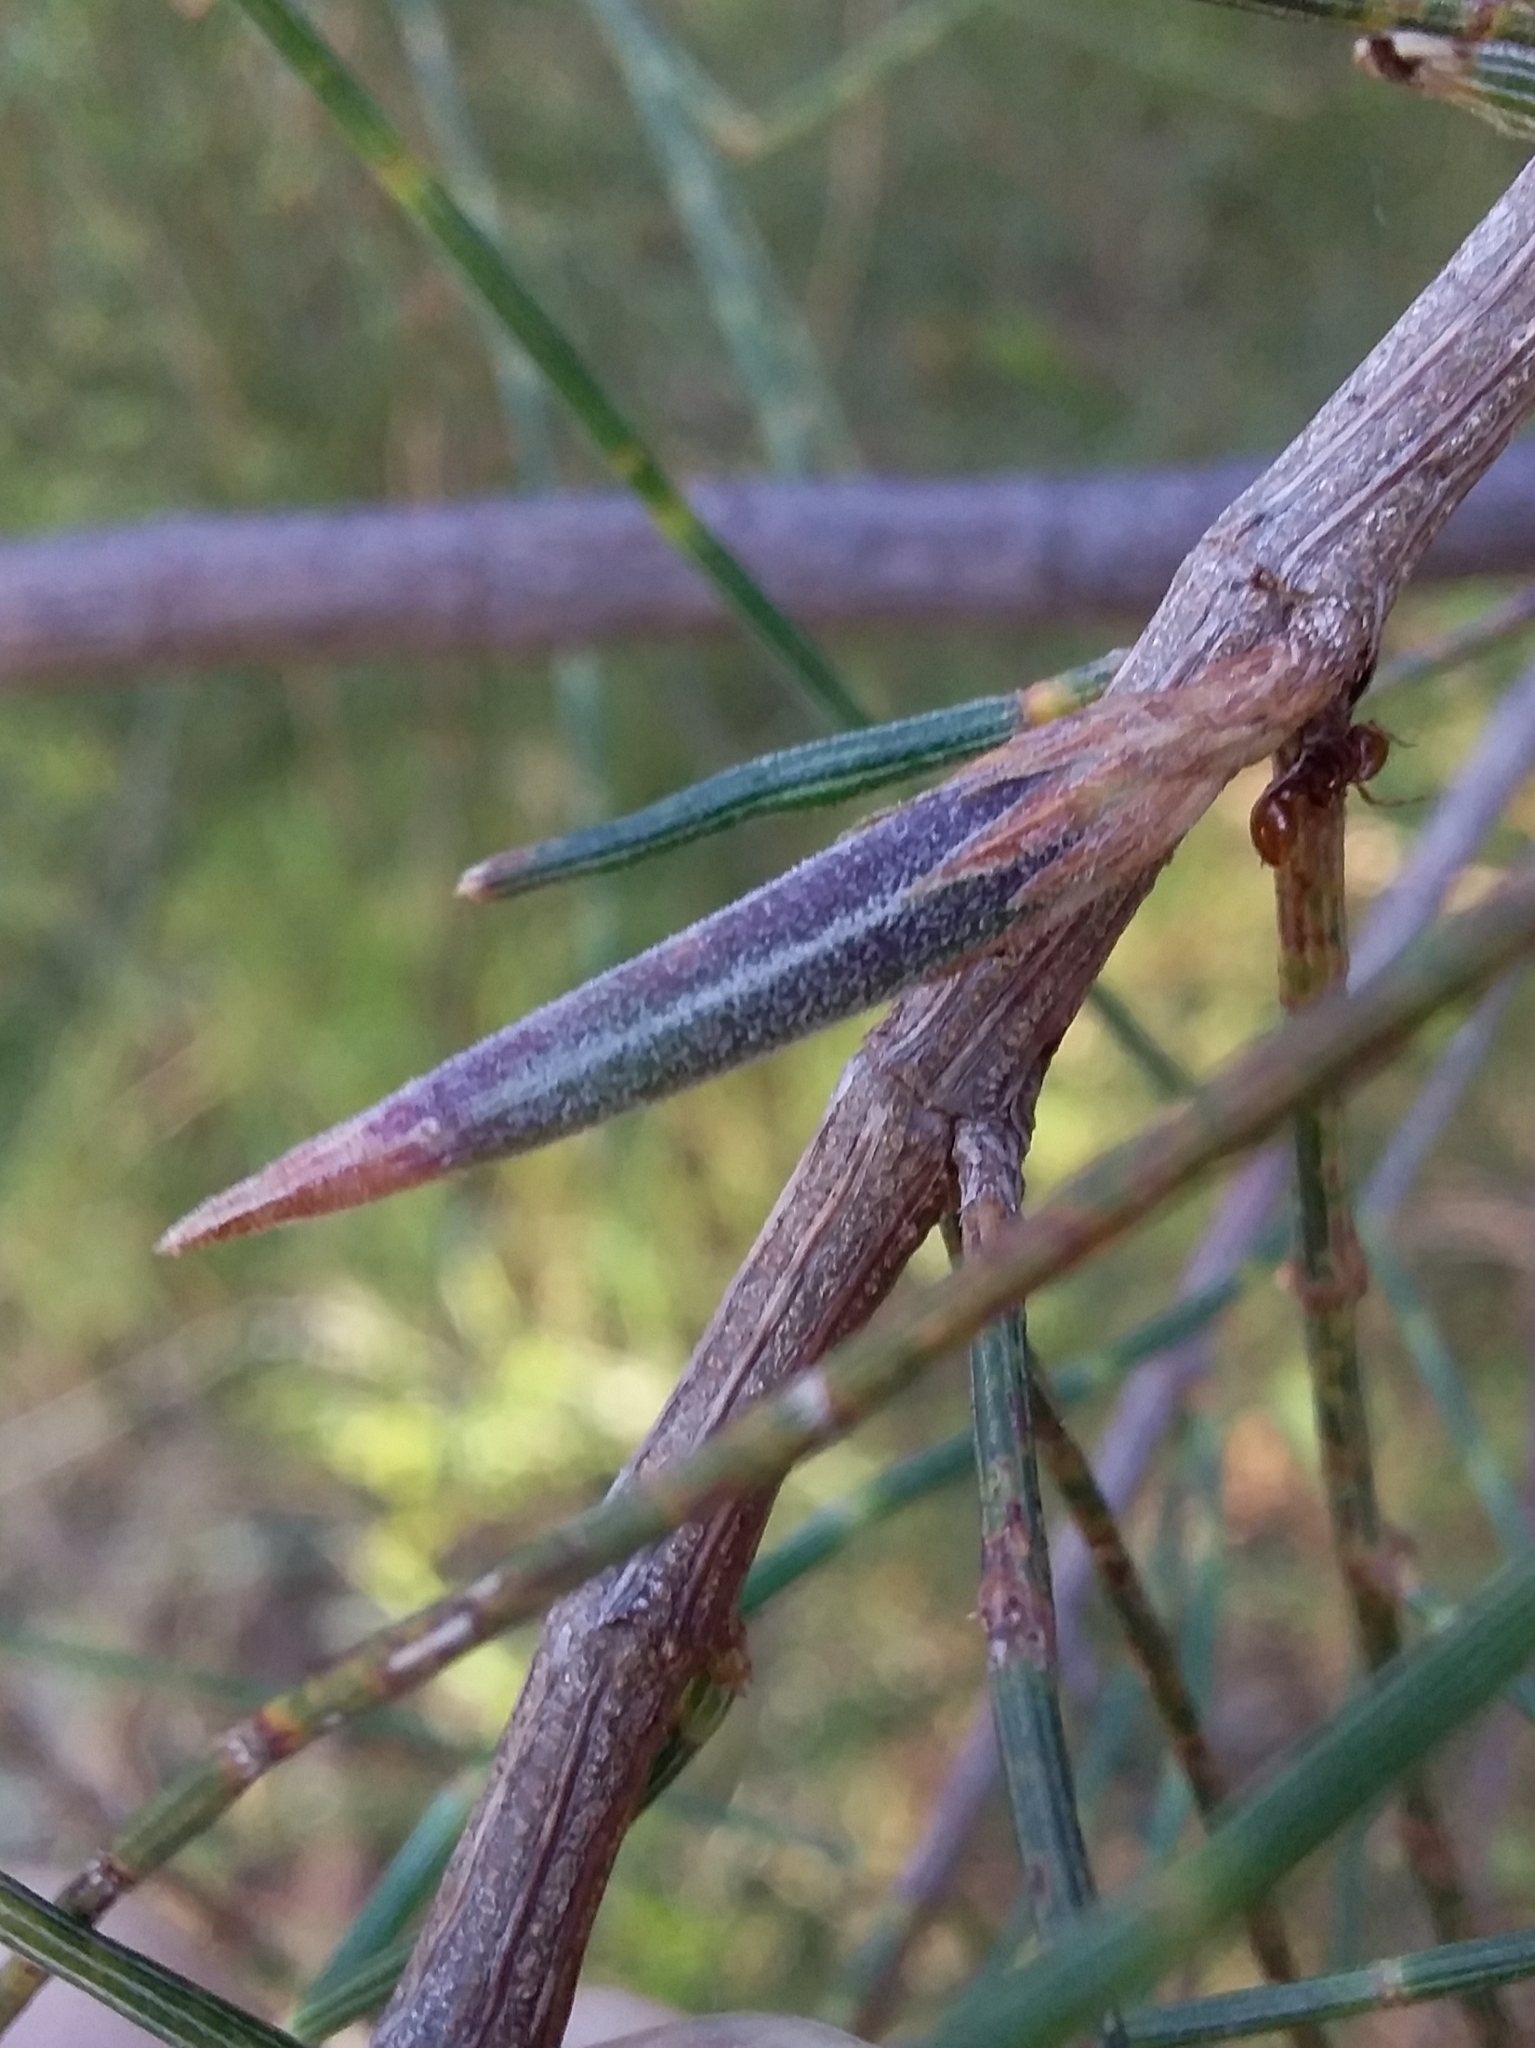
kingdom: Animalia
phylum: Arthropoda
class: Insecta
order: Hemiptera
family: Eriococcidae
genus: Cylindrococcus
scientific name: Cylindrococcus casuarinae
